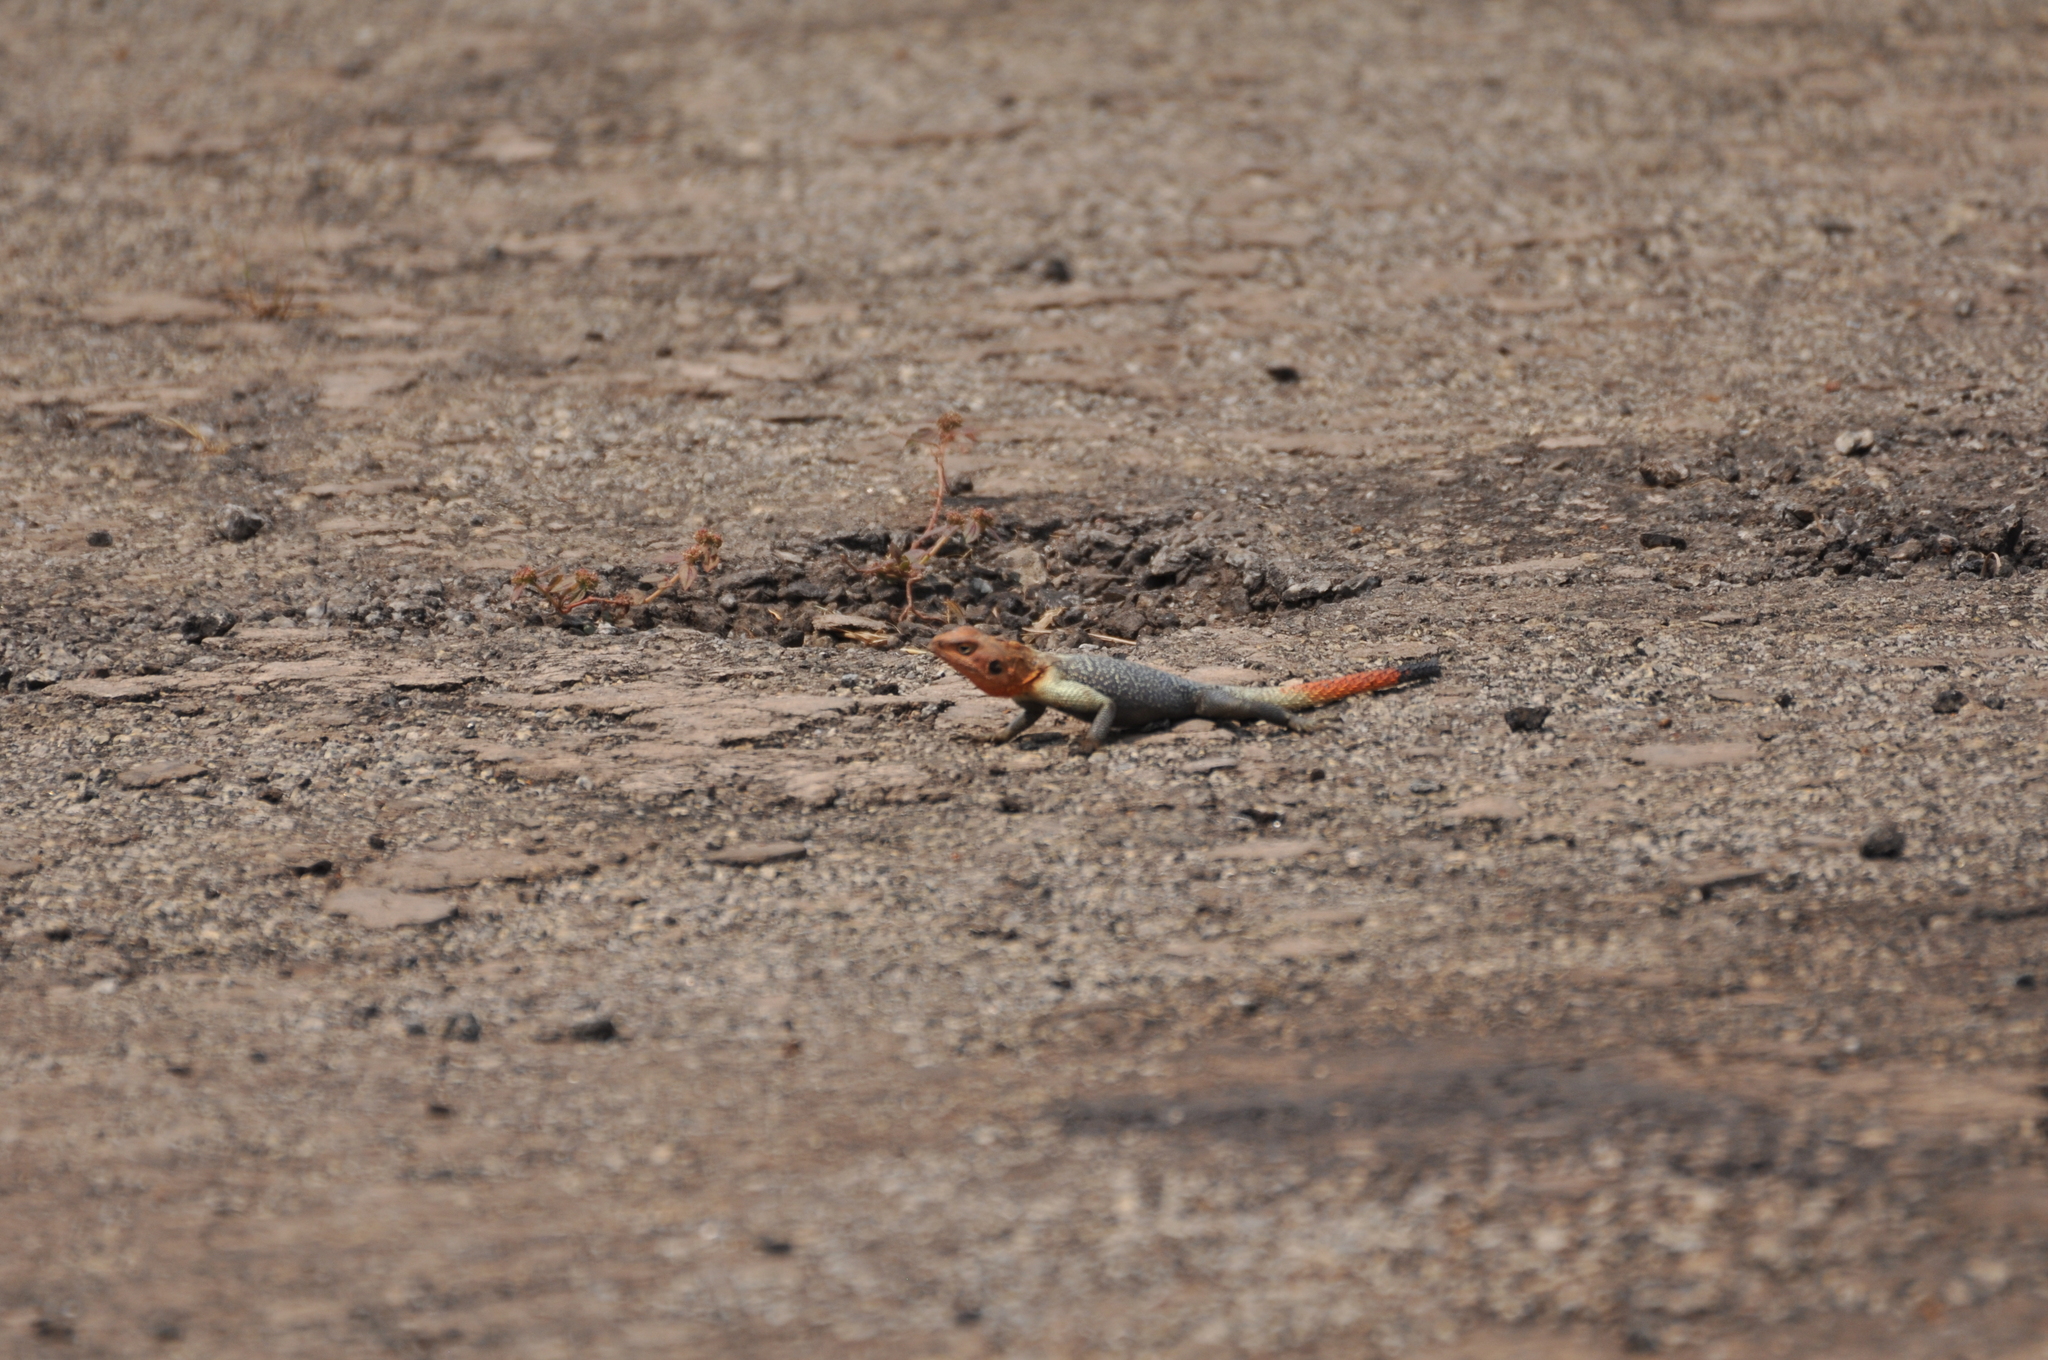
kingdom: Animalia
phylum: Chordata
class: Squamata
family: Agamidae
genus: Agama
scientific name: Agama planiceps
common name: Namib rock agama
